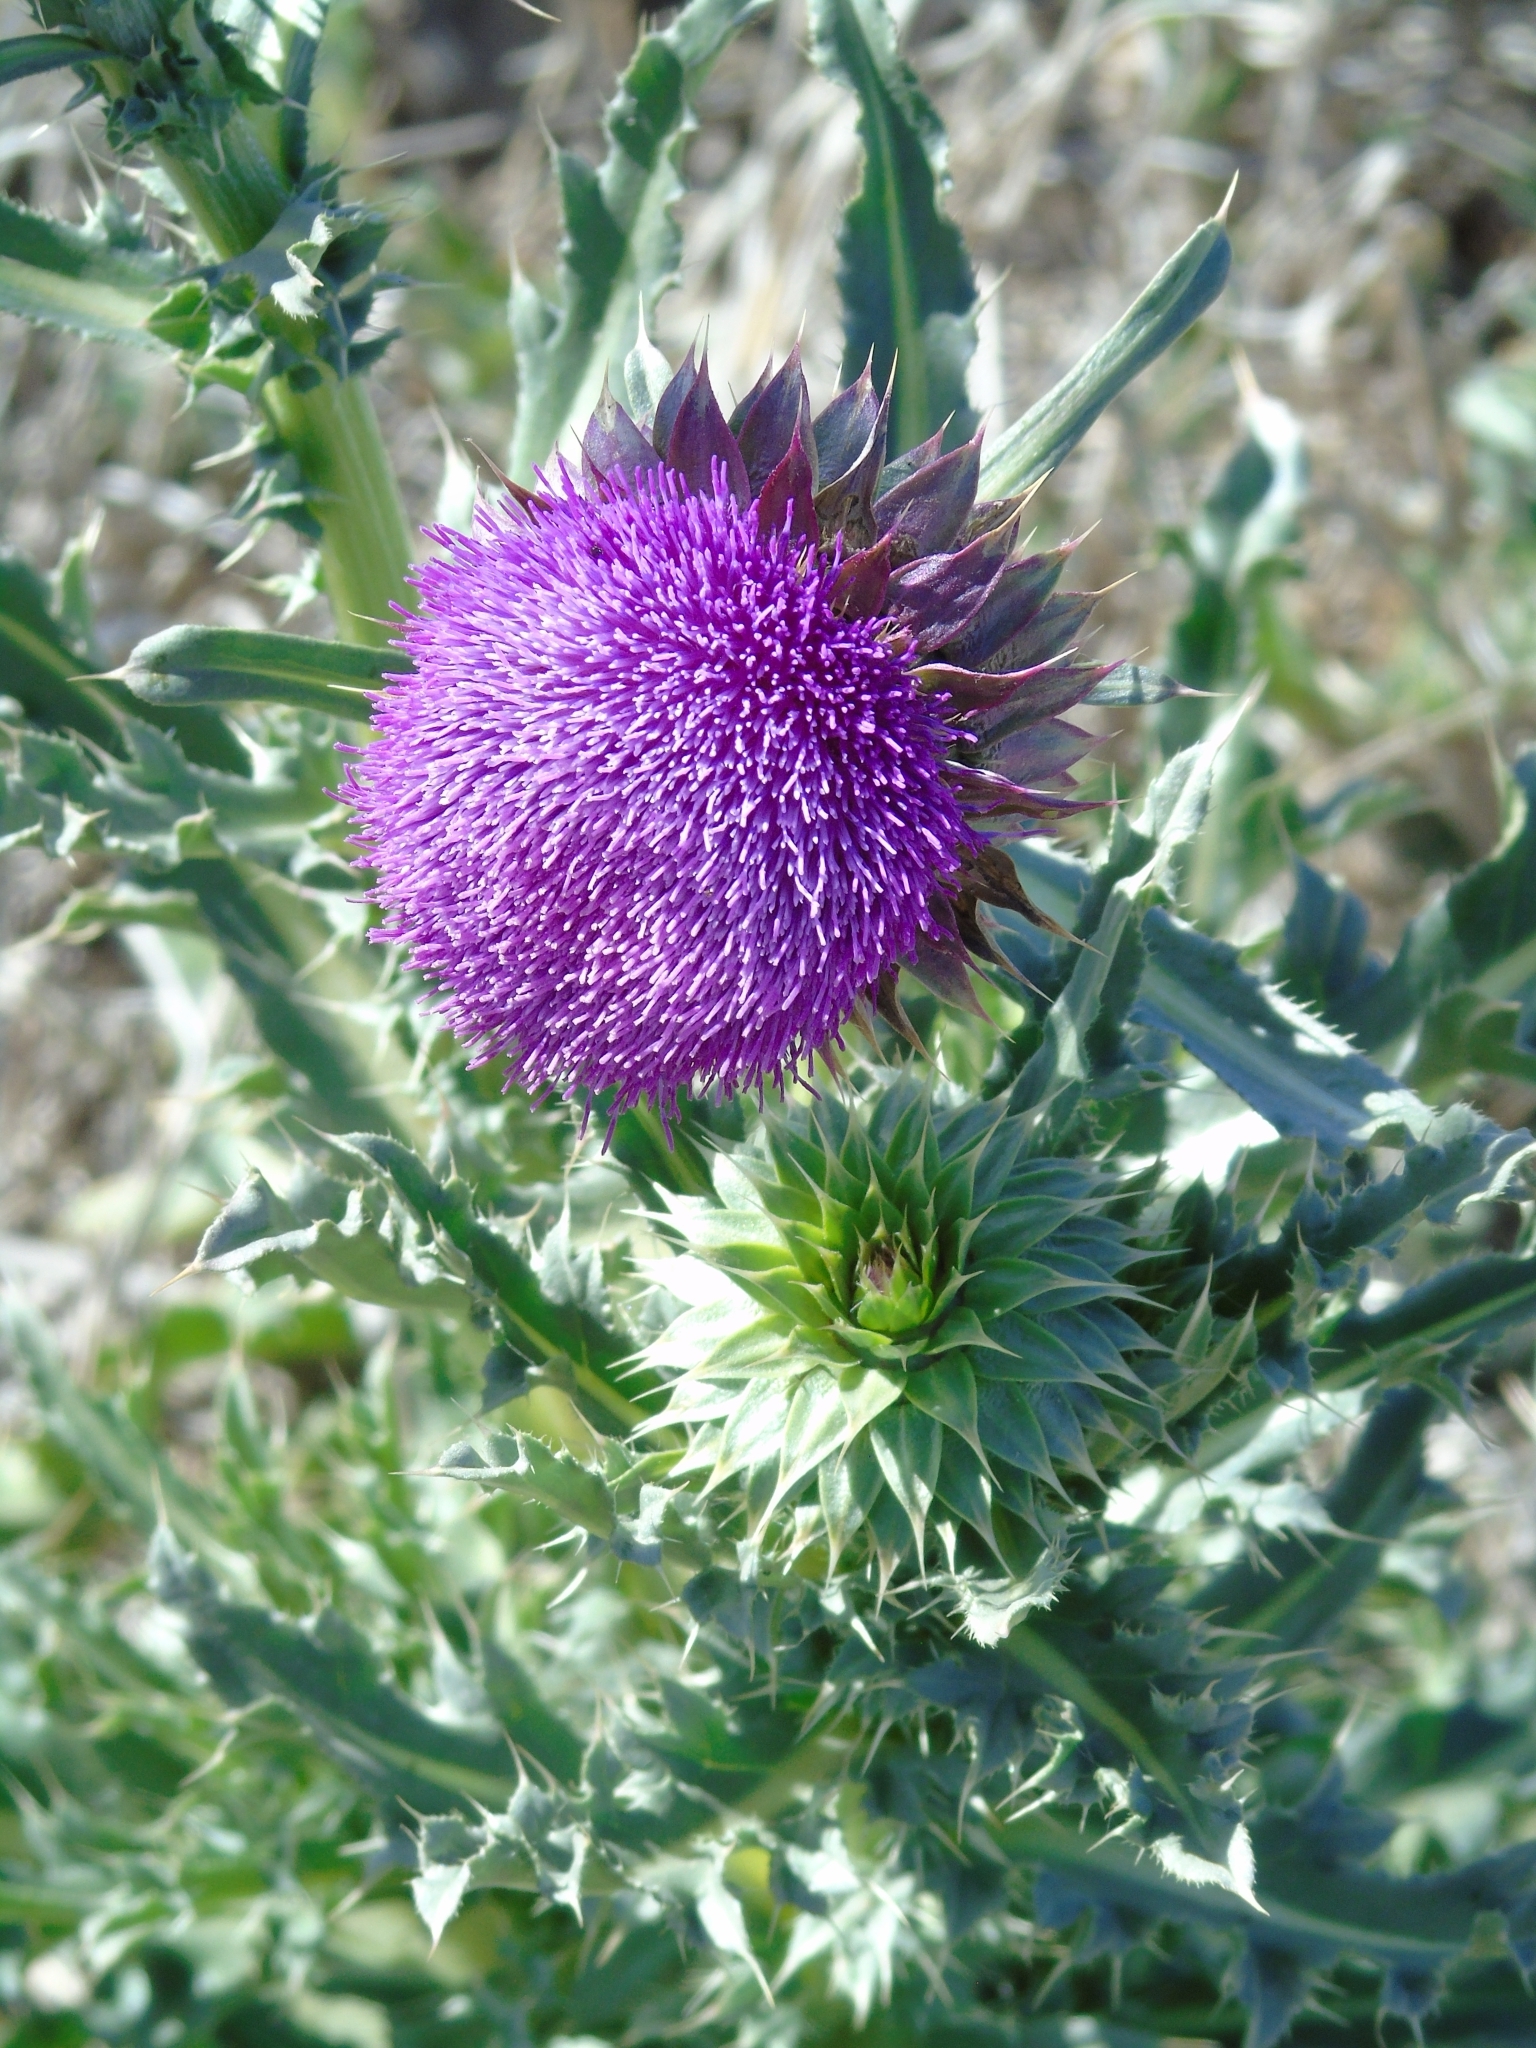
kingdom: Plantae
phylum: Tracheophyta
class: Magnoliopsida
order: Asterales
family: Asteraceae
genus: Carduus
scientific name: Carduus nutans
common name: Musk thistle
